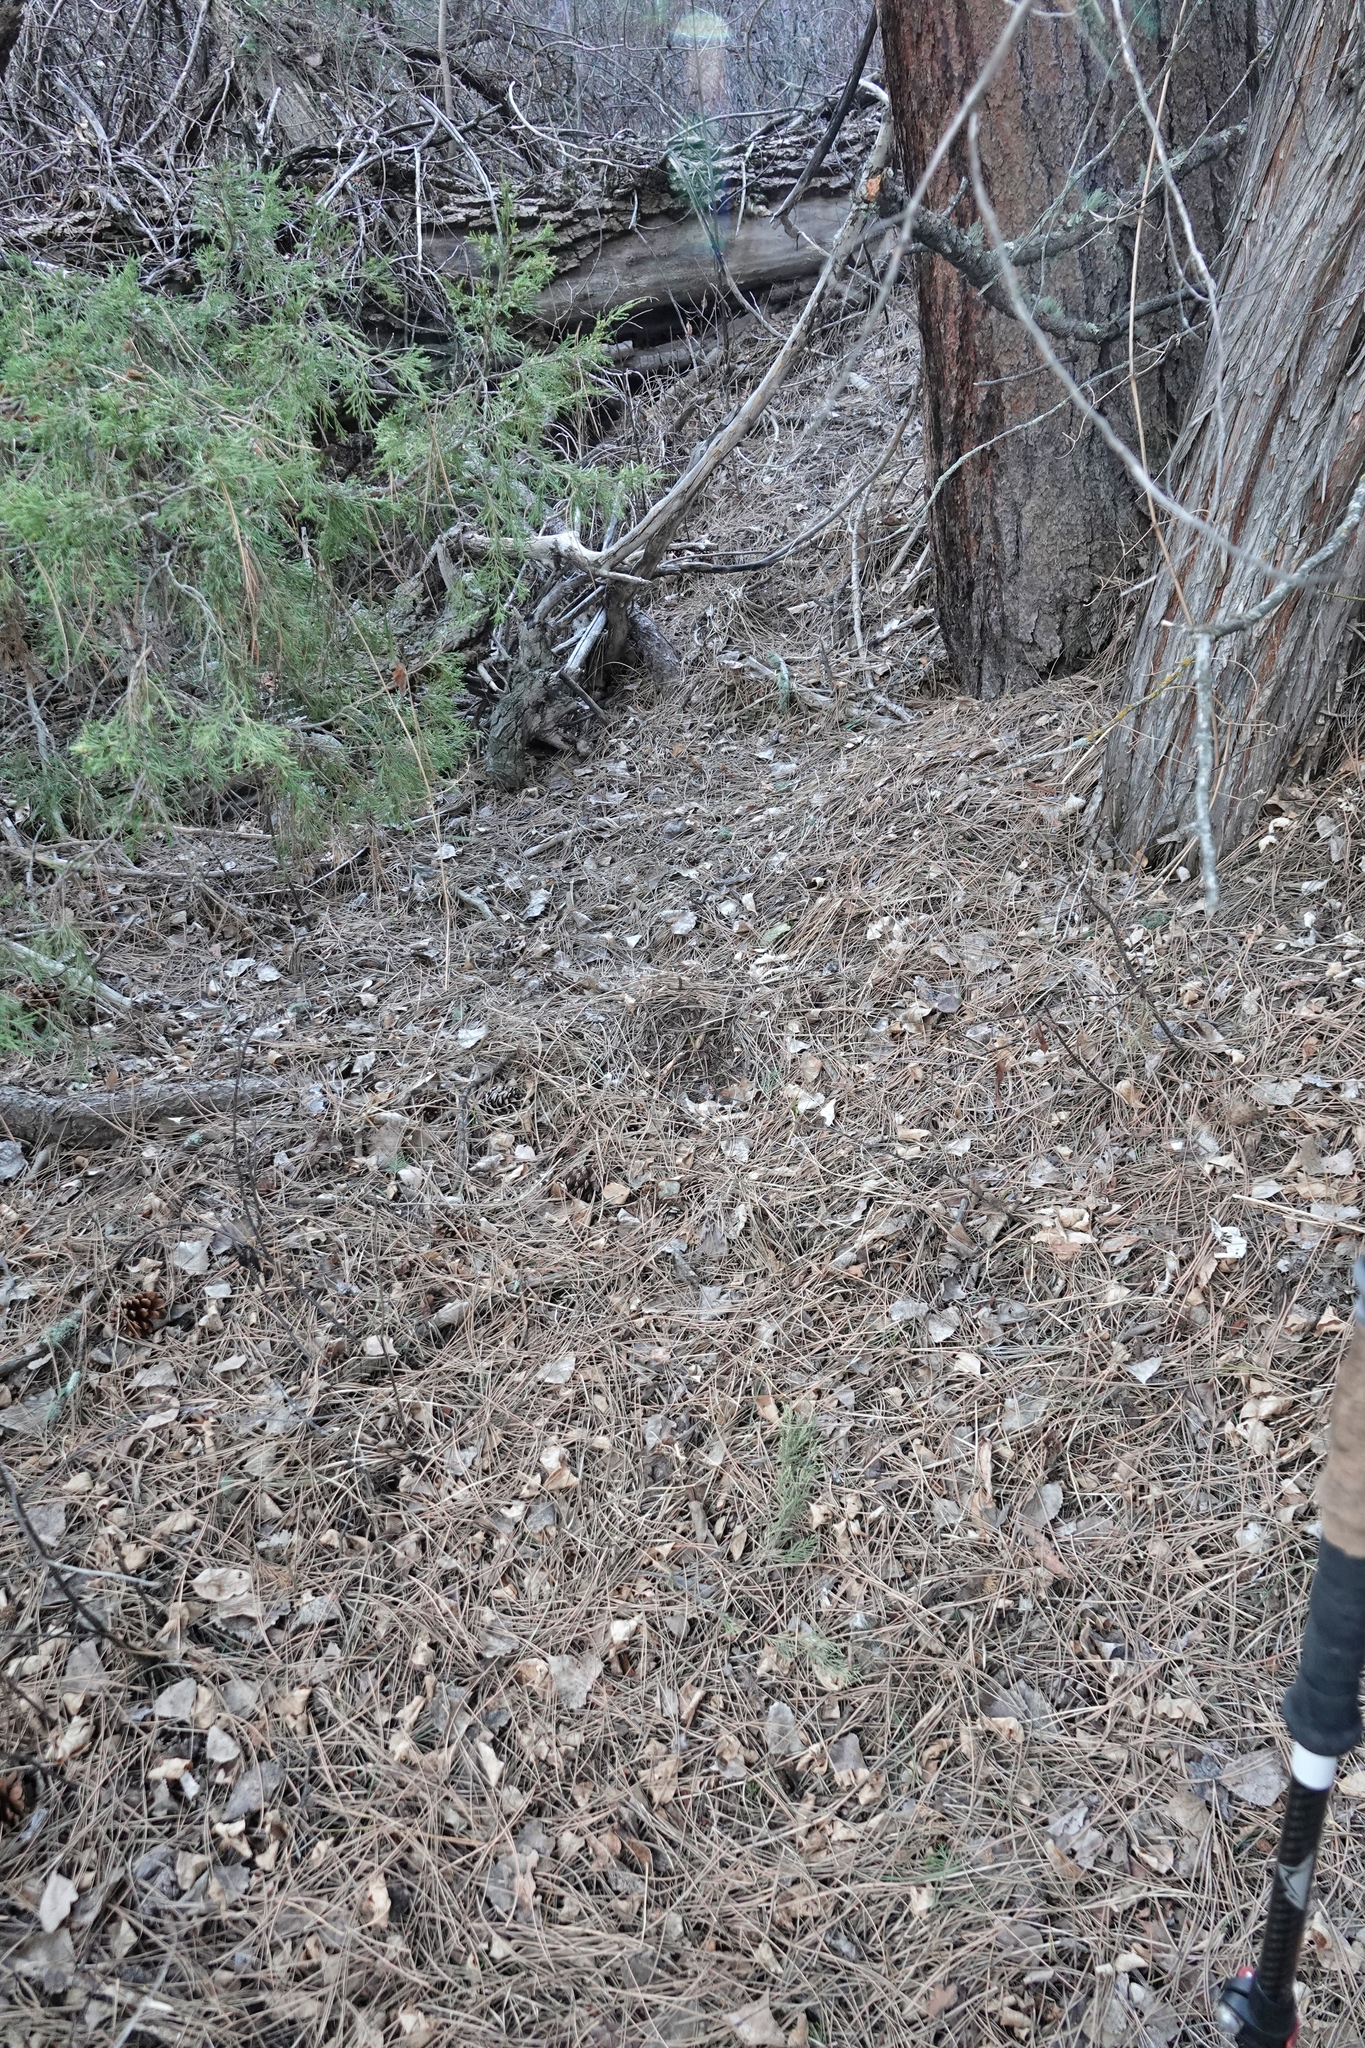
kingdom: Animalia
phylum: Chordata
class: Mammalia
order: Carnivora
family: Felidae
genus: Puma
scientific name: Puma concolor
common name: Puma
